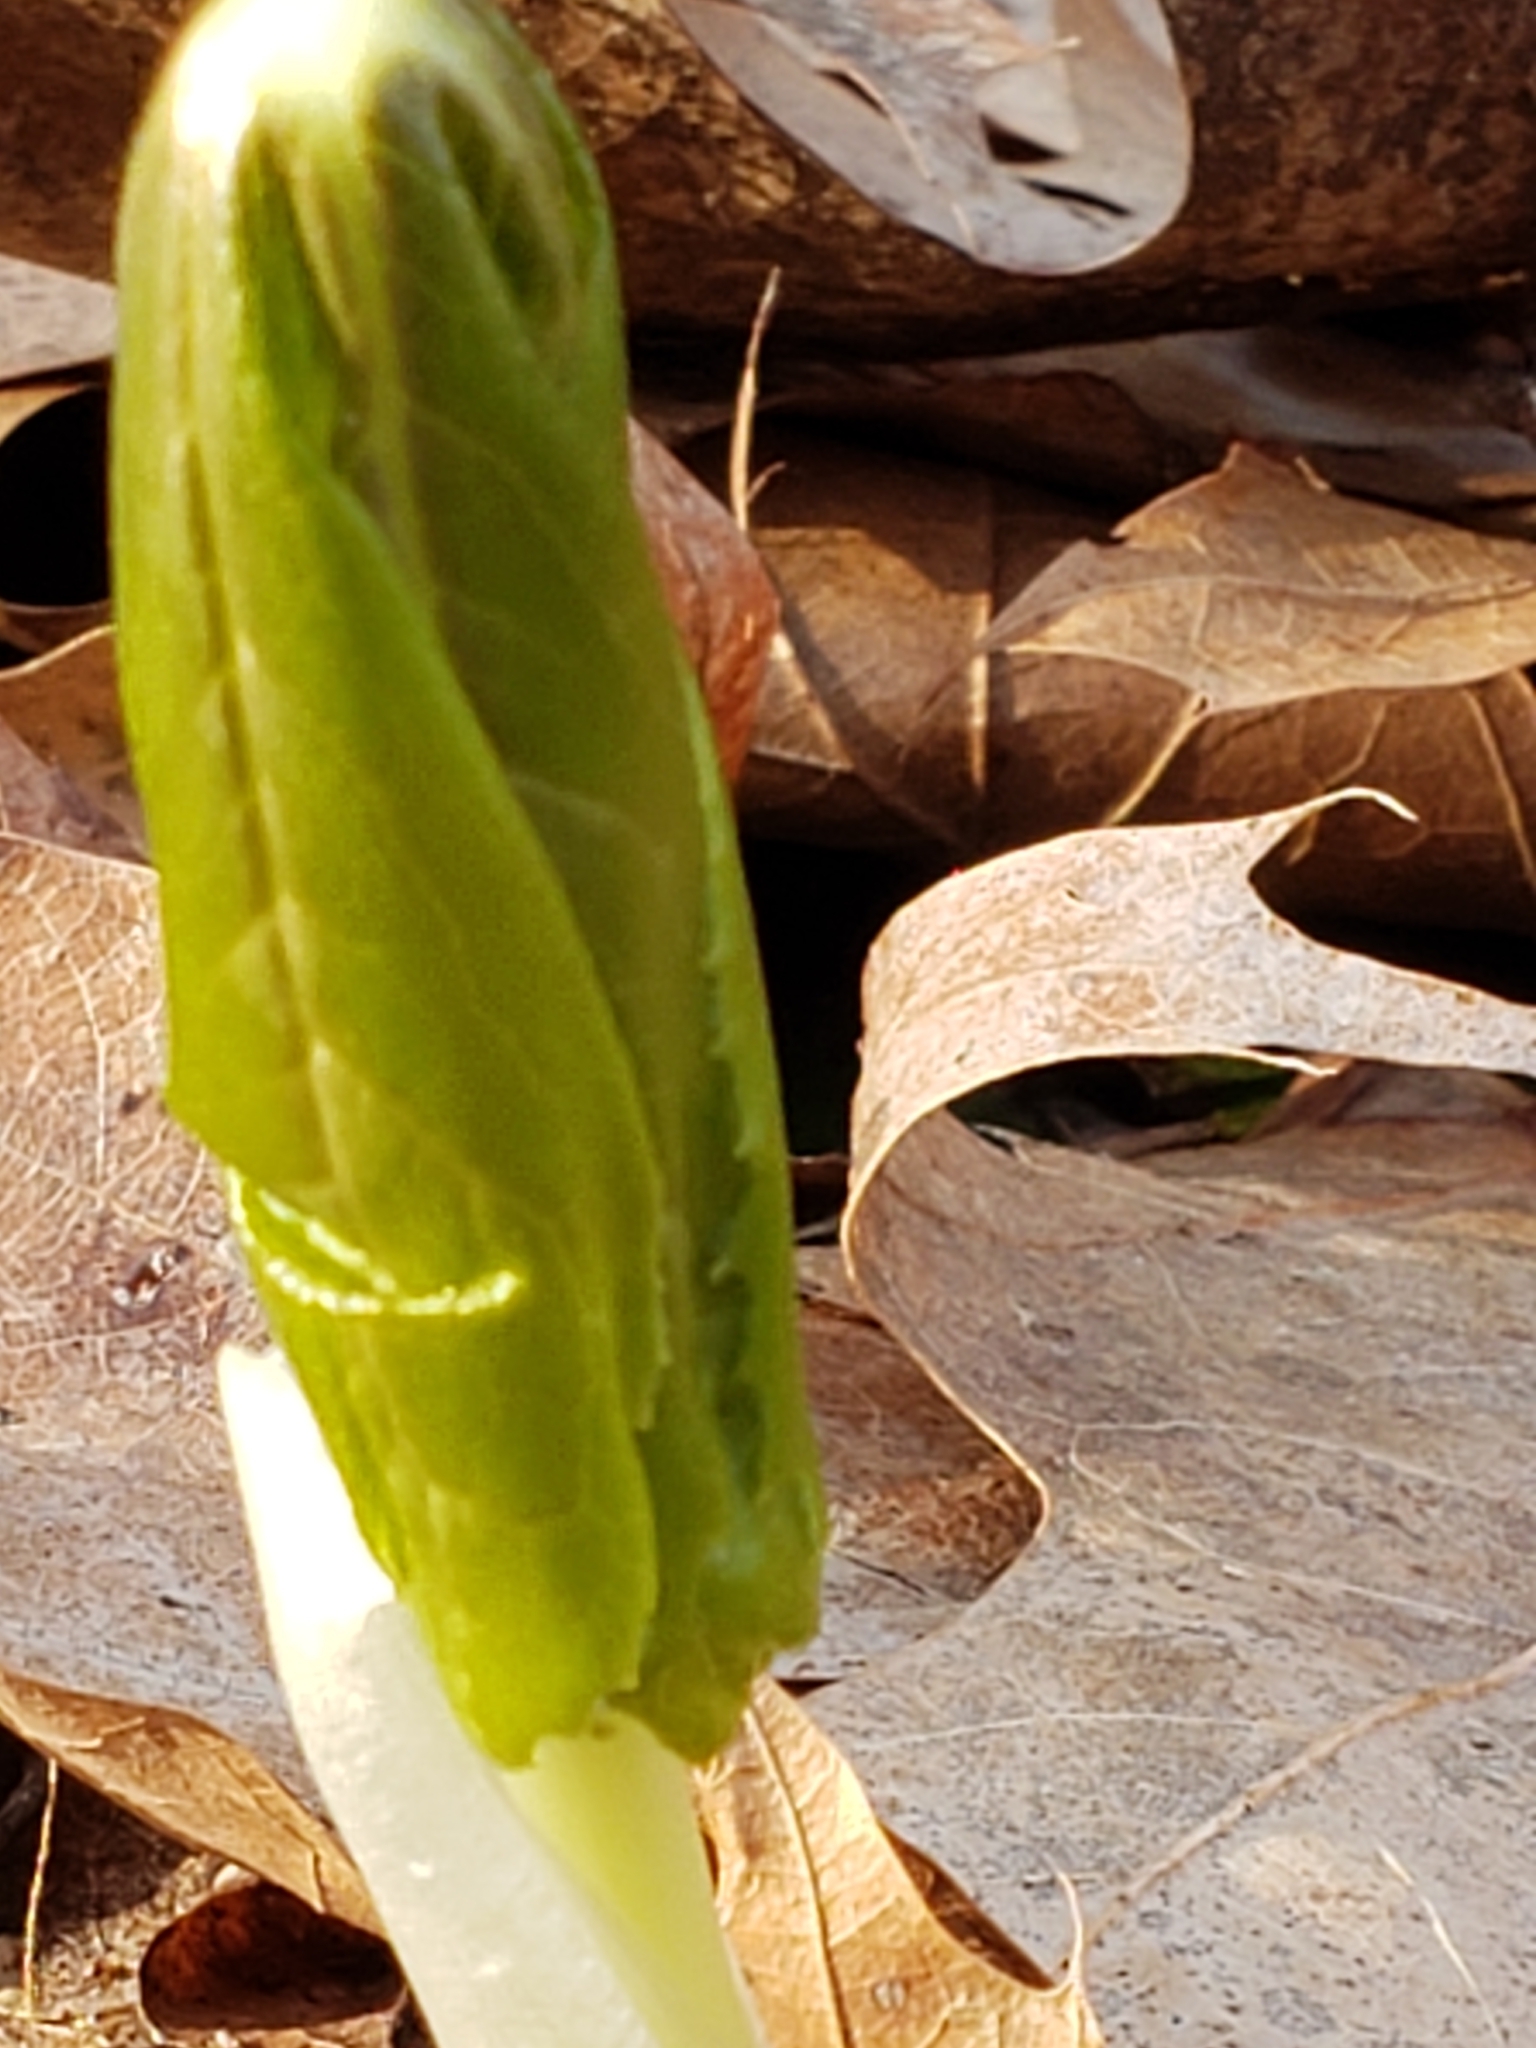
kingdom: Plantae
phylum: Tracheophyta
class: Magnoliopsida
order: Ranunculales
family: Berberidaceae
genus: Podophyllum
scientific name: Podophyllum peltatum
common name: Wild mandrake
